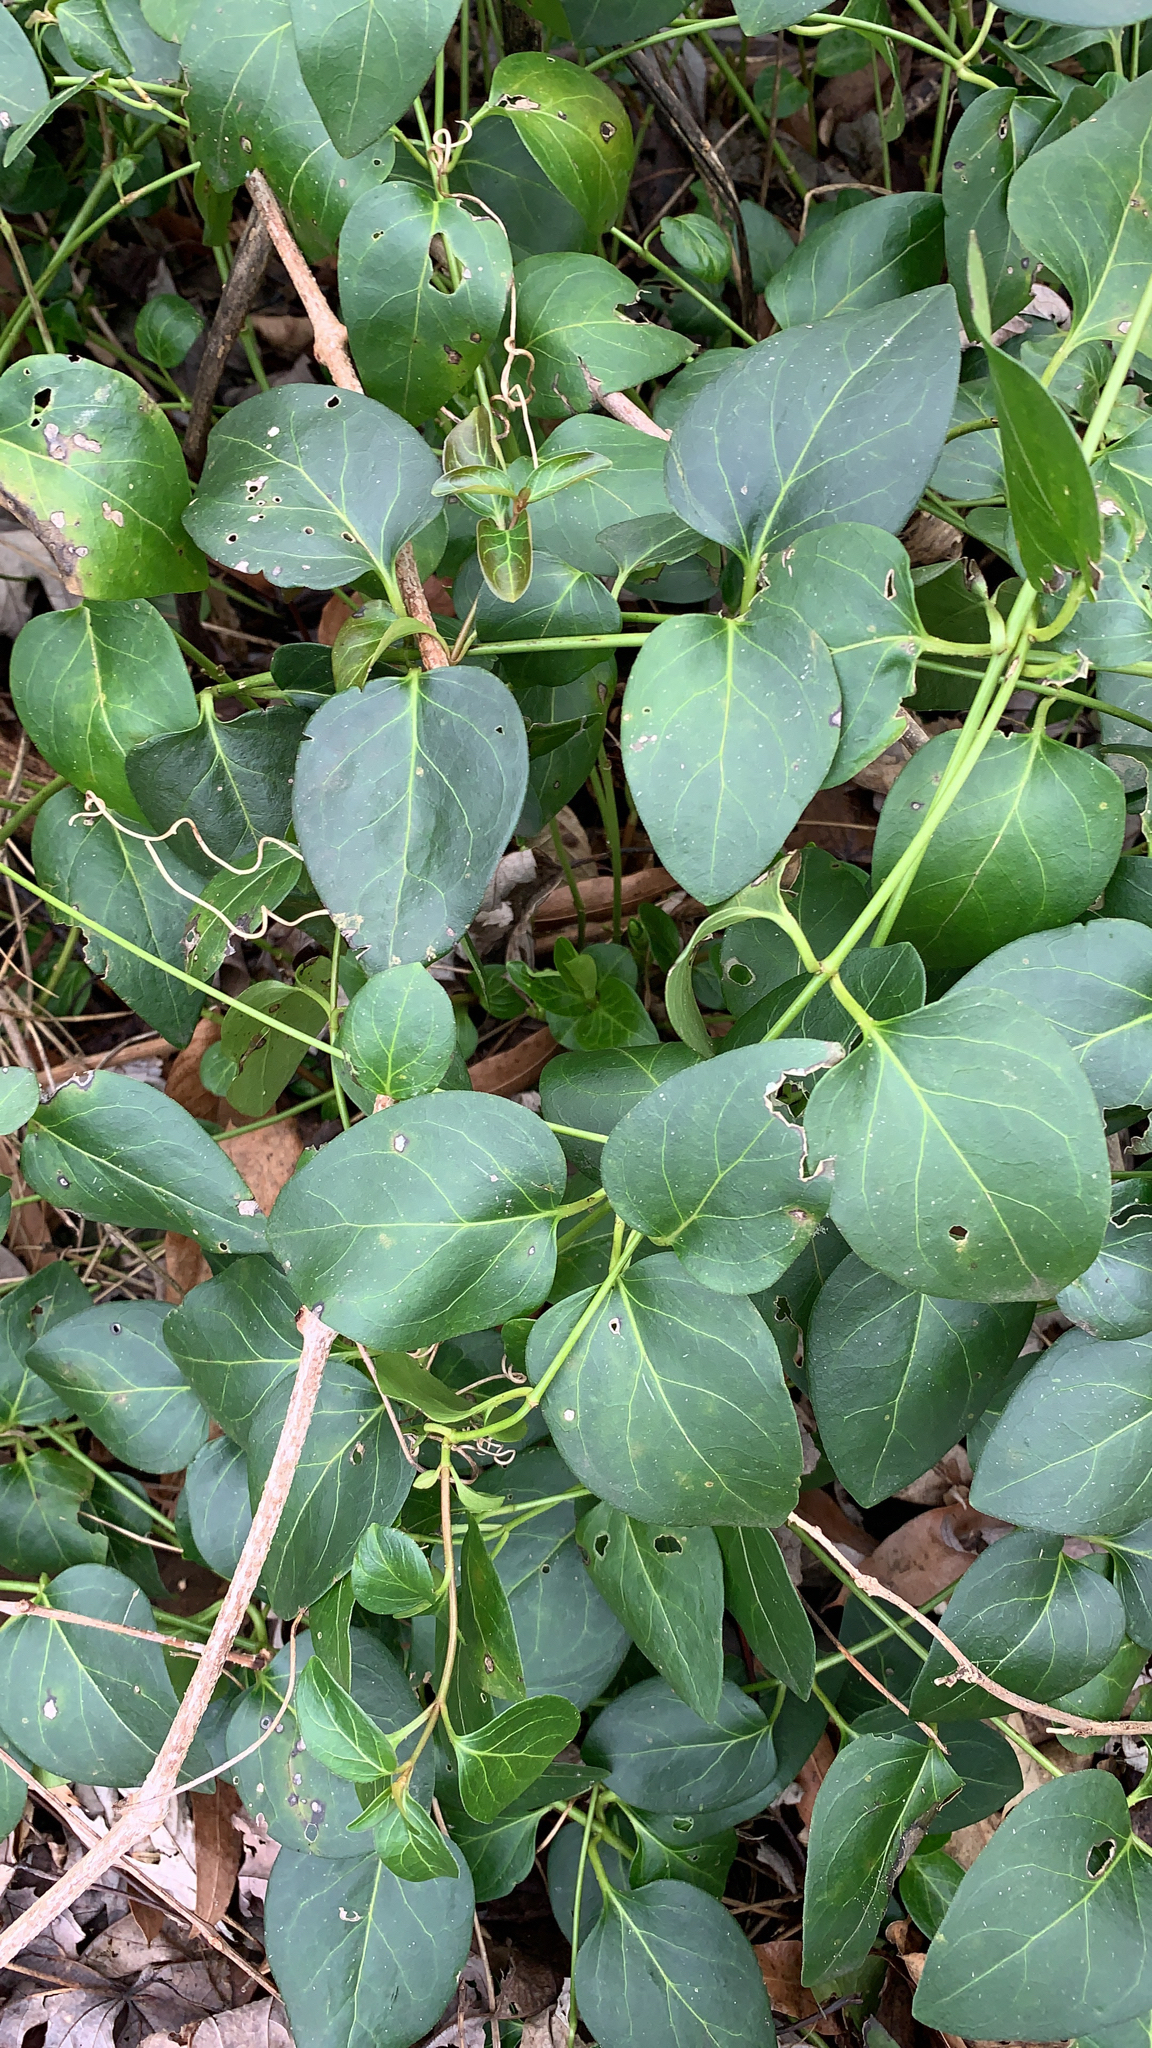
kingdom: Plantae
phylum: Tracheophyta
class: Magnoliopsida
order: Gentianales
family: Apocynaceae
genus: Vinca
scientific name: Vinca major
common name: Greater periwinkle
